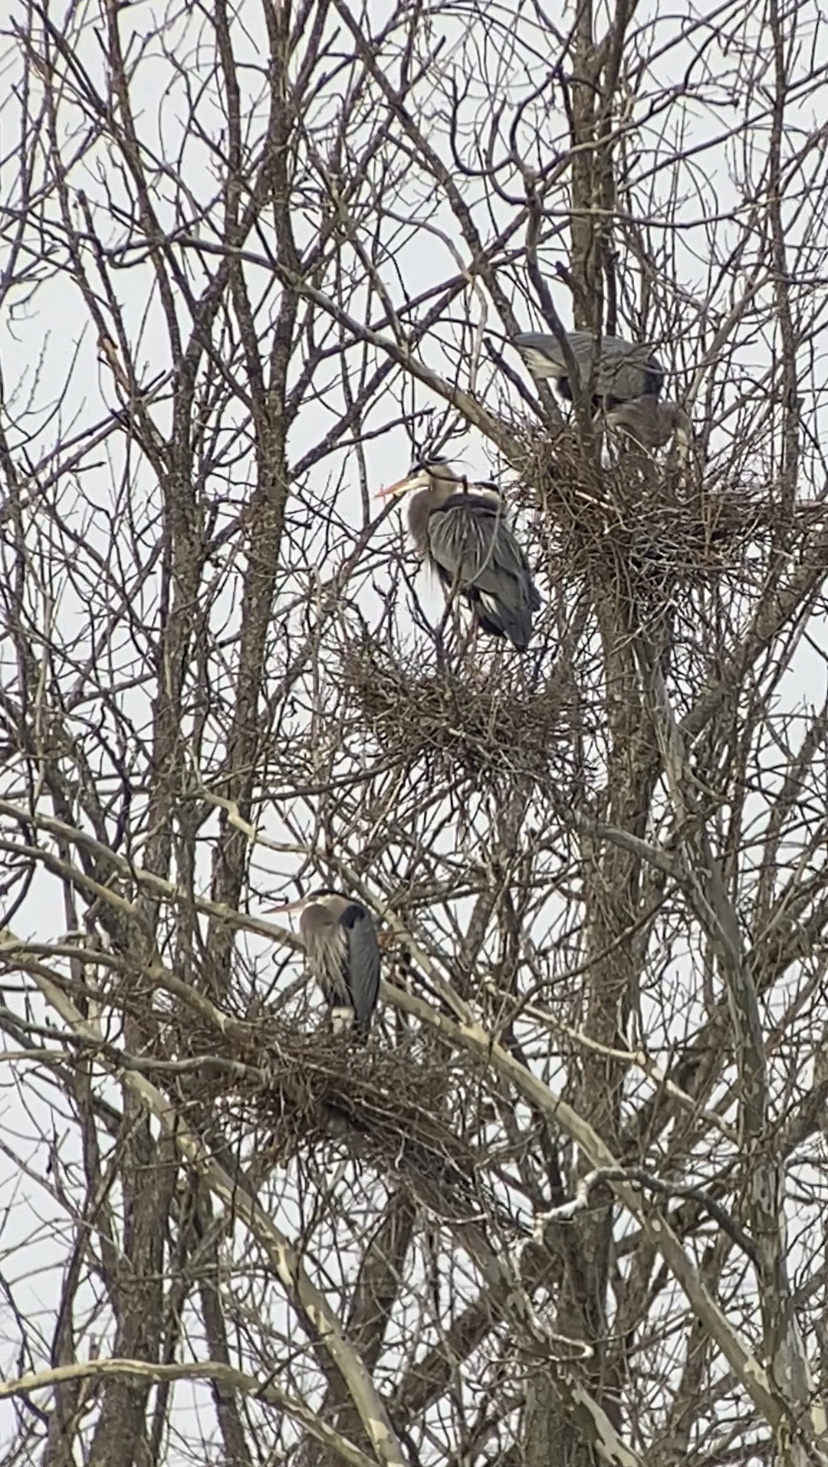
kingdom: Animalia
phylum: Chordata
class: Aves
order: Pelecaniformes
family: Ardeidae
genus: Ardea
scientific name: Ardea herodias
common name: Great blue heron
